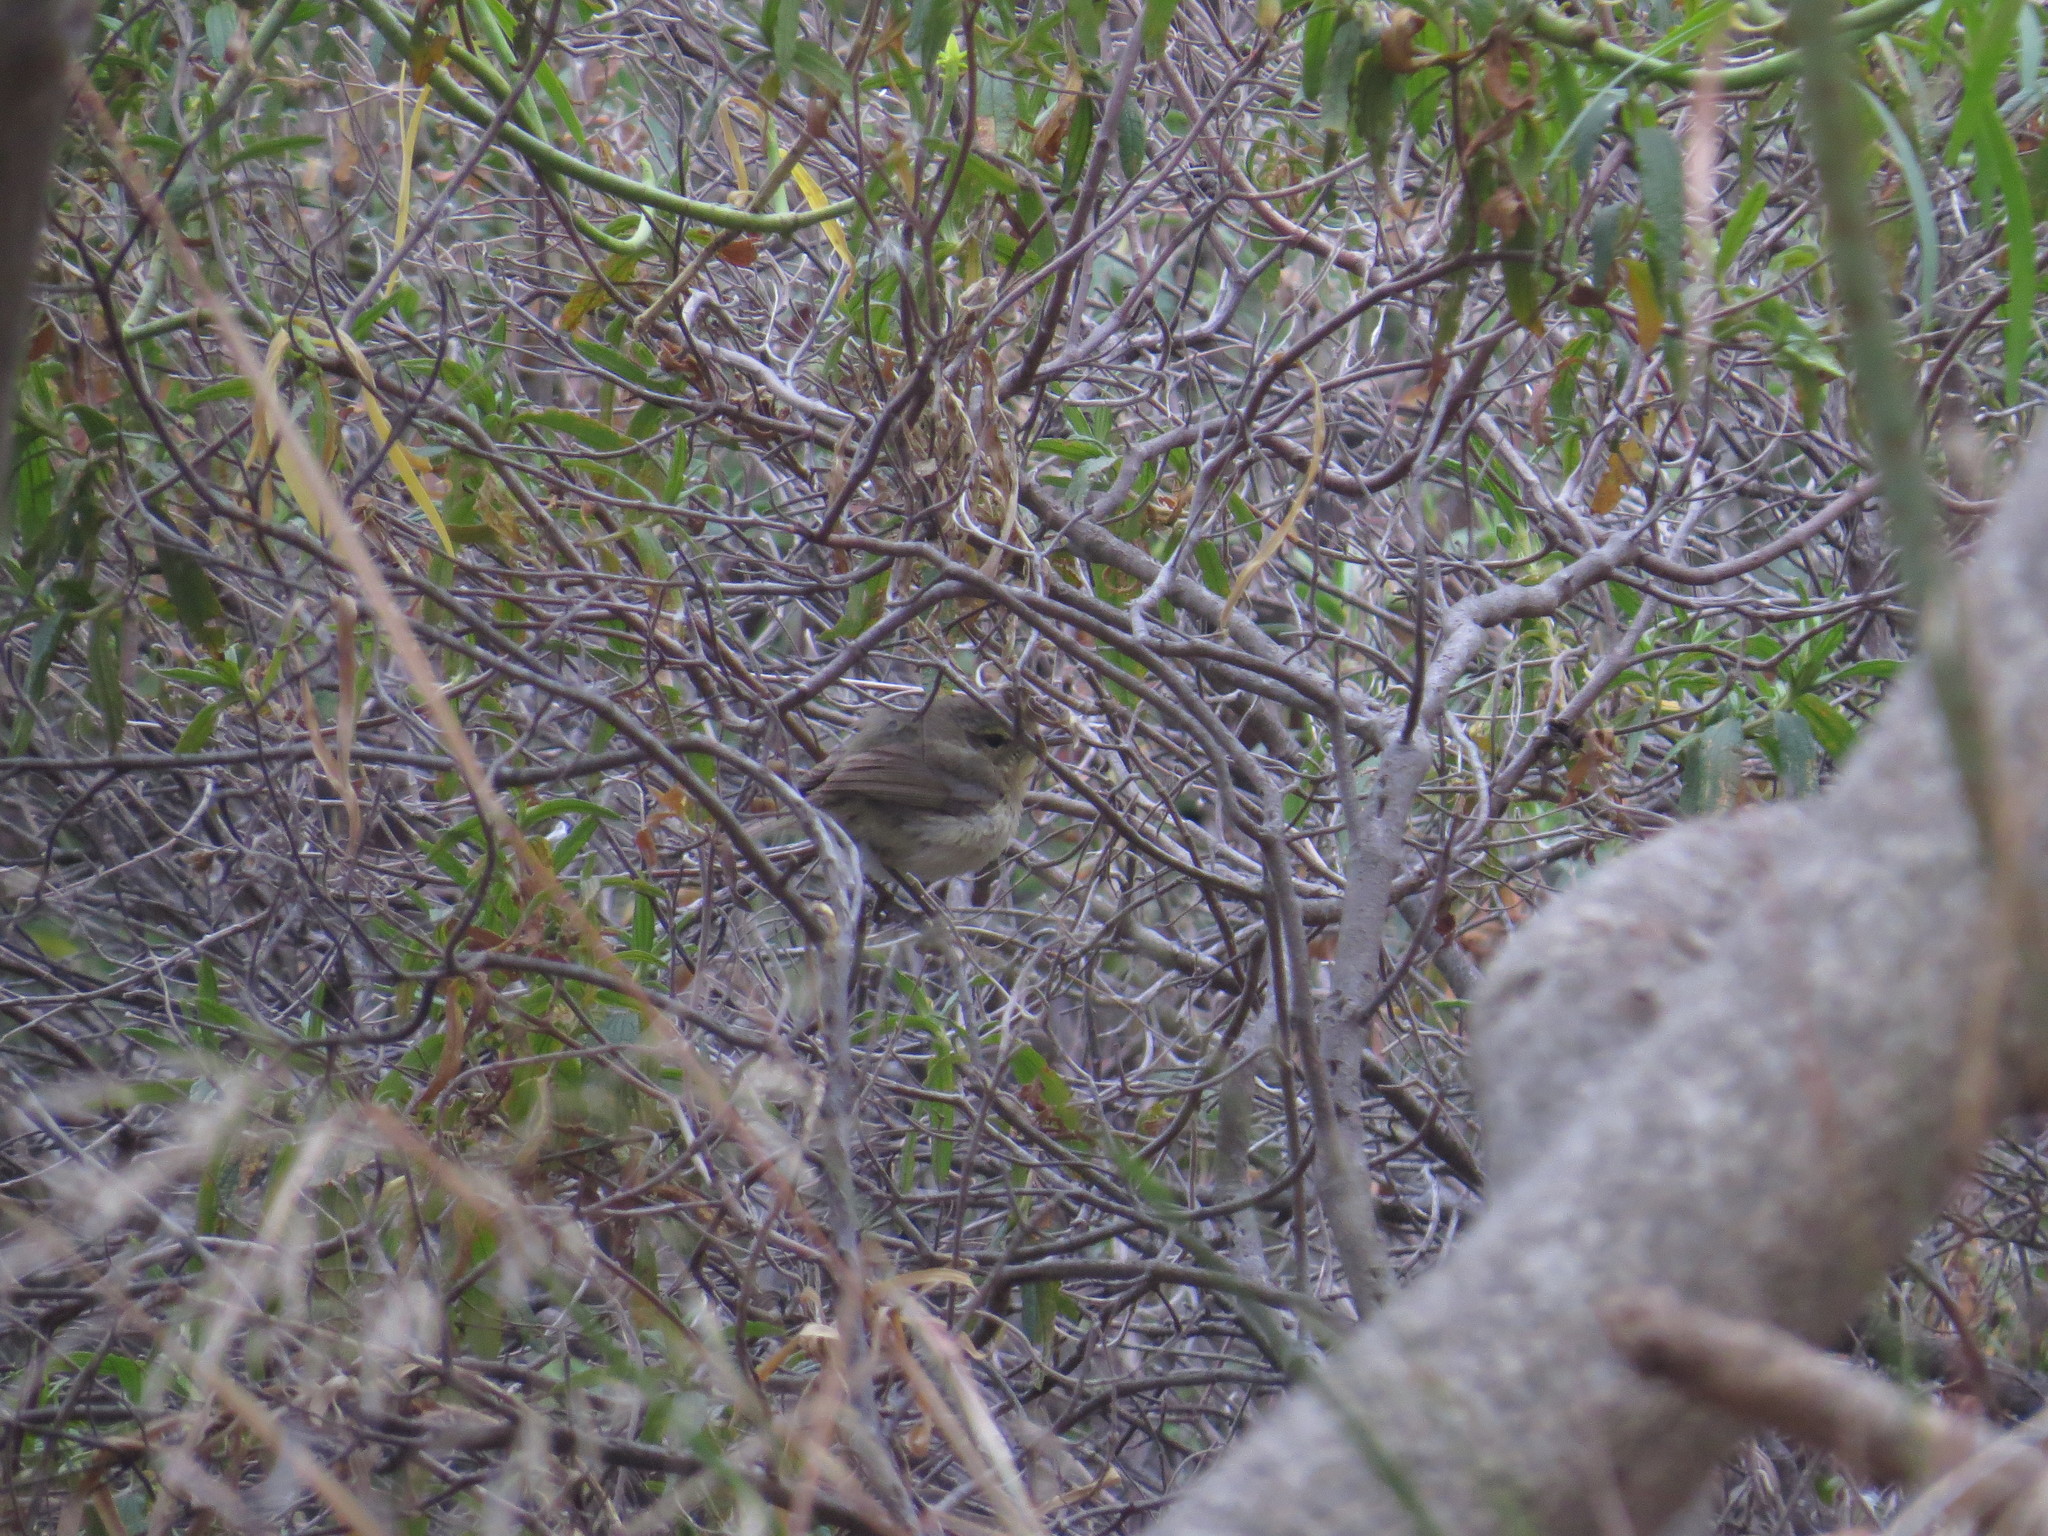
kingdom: Animalia
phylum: Chordata
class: Aves
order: Passeriformes
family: Phylloscopidae
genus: Phylloscopus
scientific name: Phylloscopus canariensis
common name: Canary islands chiffchaff
